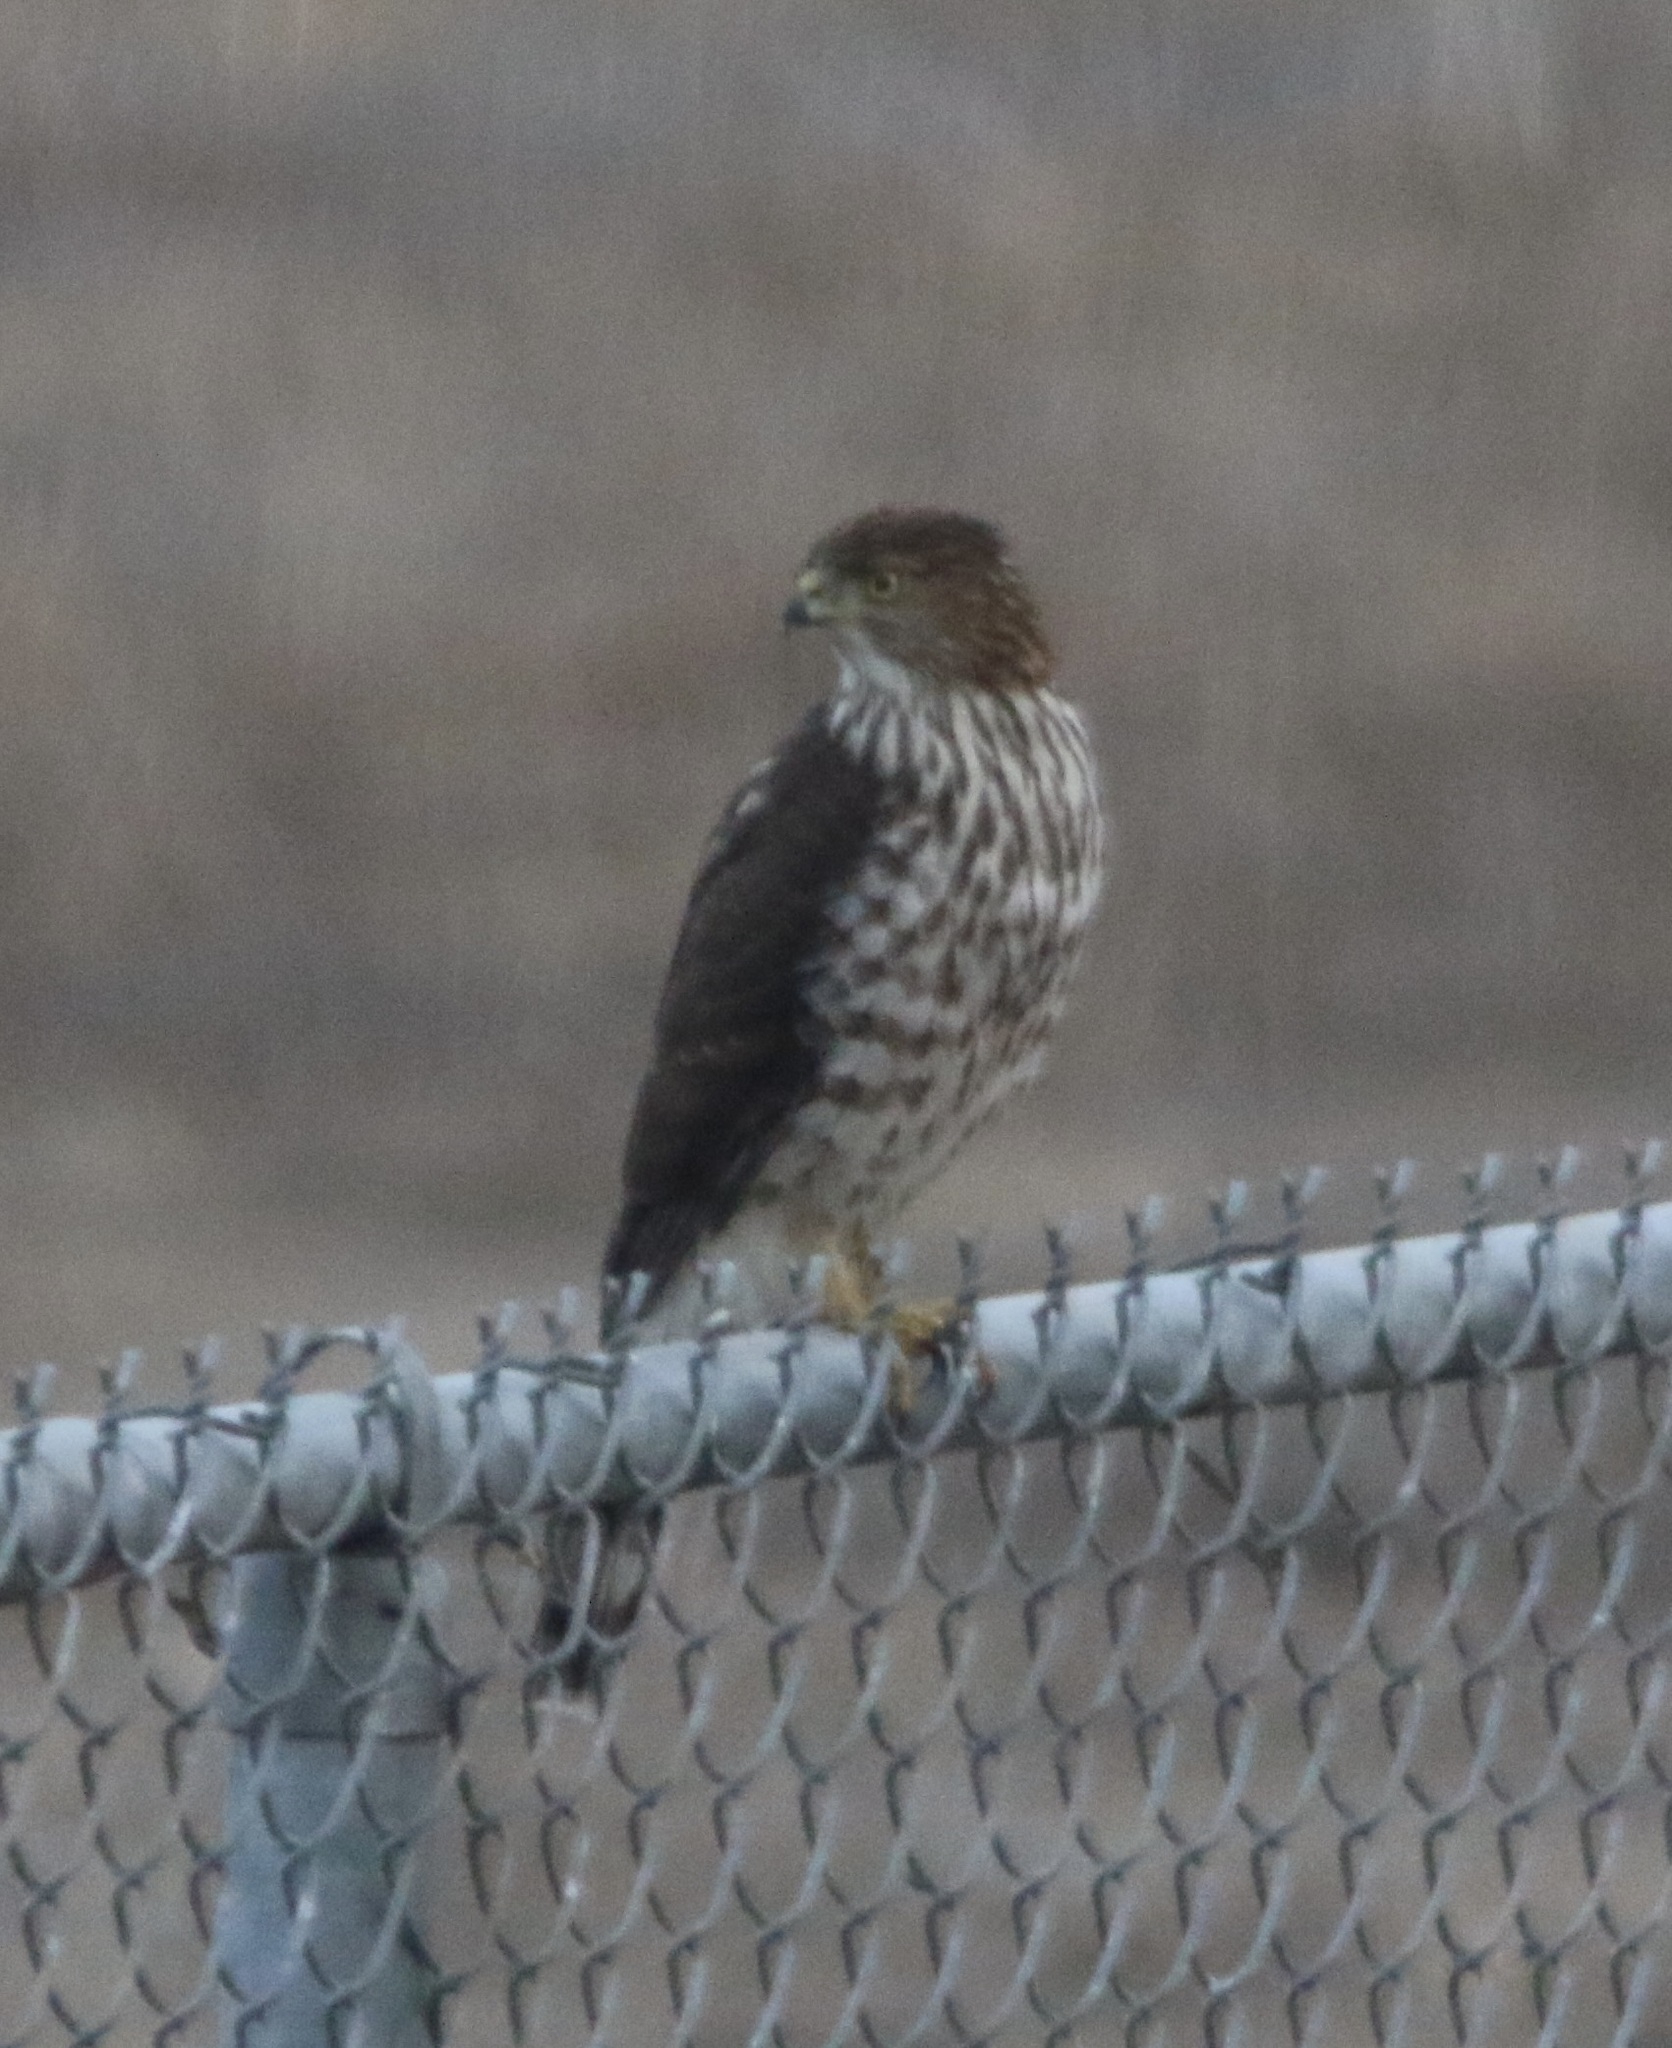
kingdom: Animalia
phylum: Chordata
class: Aves
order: Accipitriformes
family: Accipitridae
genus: Accipiter
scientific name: Accipiter cooperii
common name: Cooper's hawk
